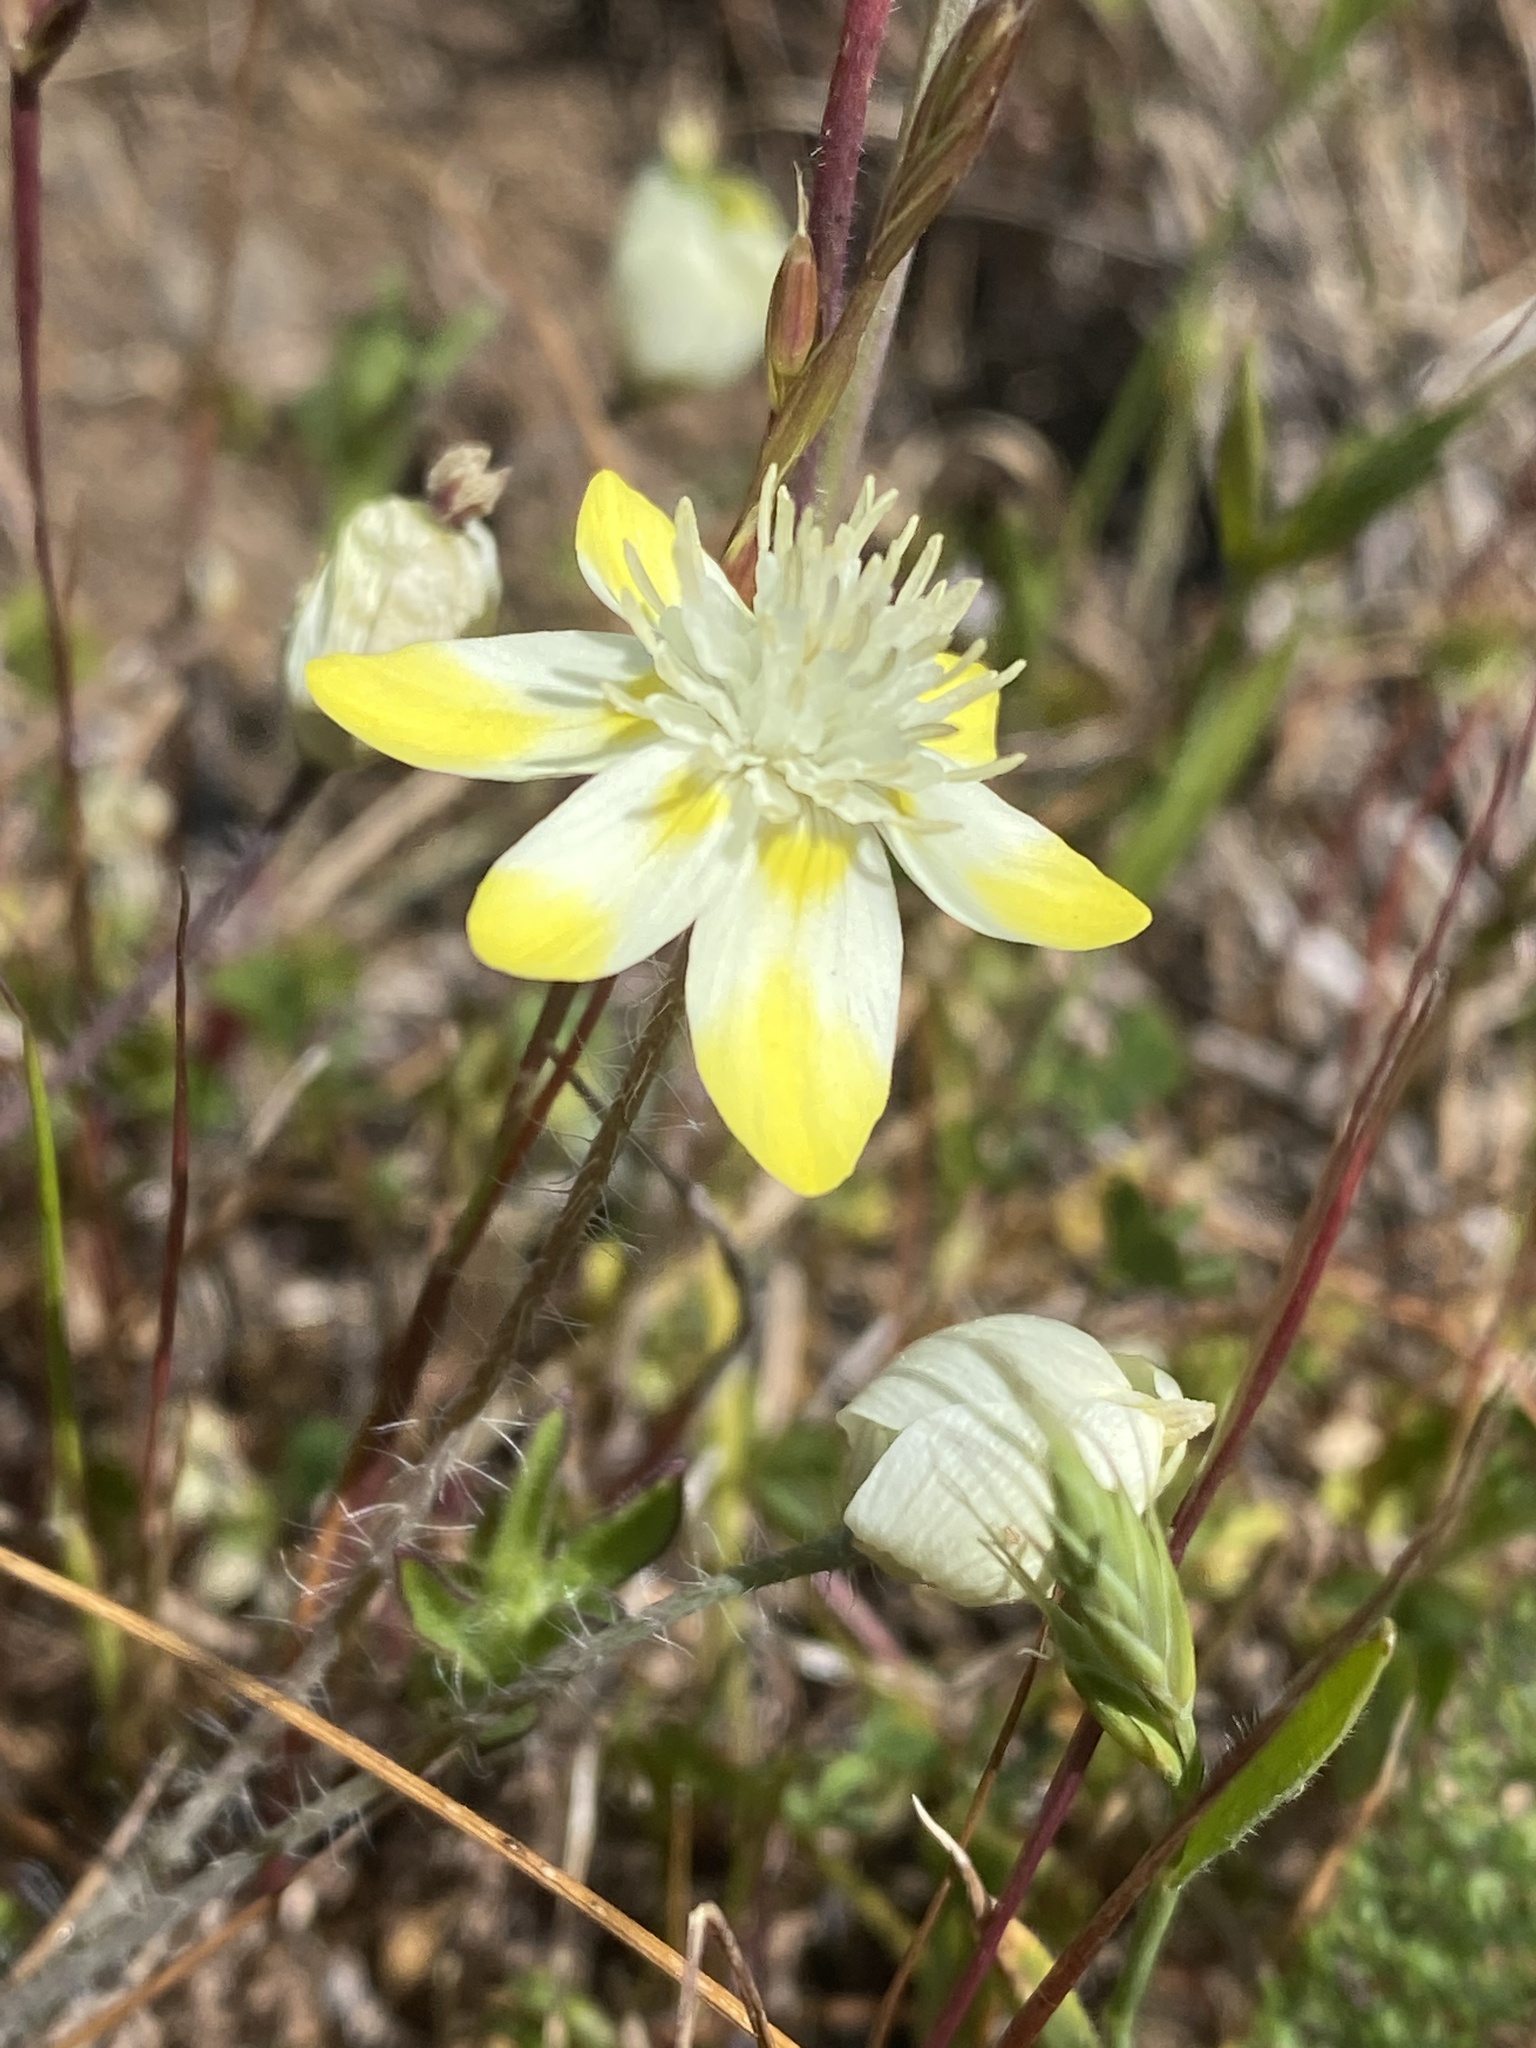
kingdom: Plantae
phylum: Tracheophyta
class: Magnoliopsida
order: Ranunculales
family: Papaveraceae
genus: Platystemon
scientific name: Platystemon californicus
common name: Cream-cups
